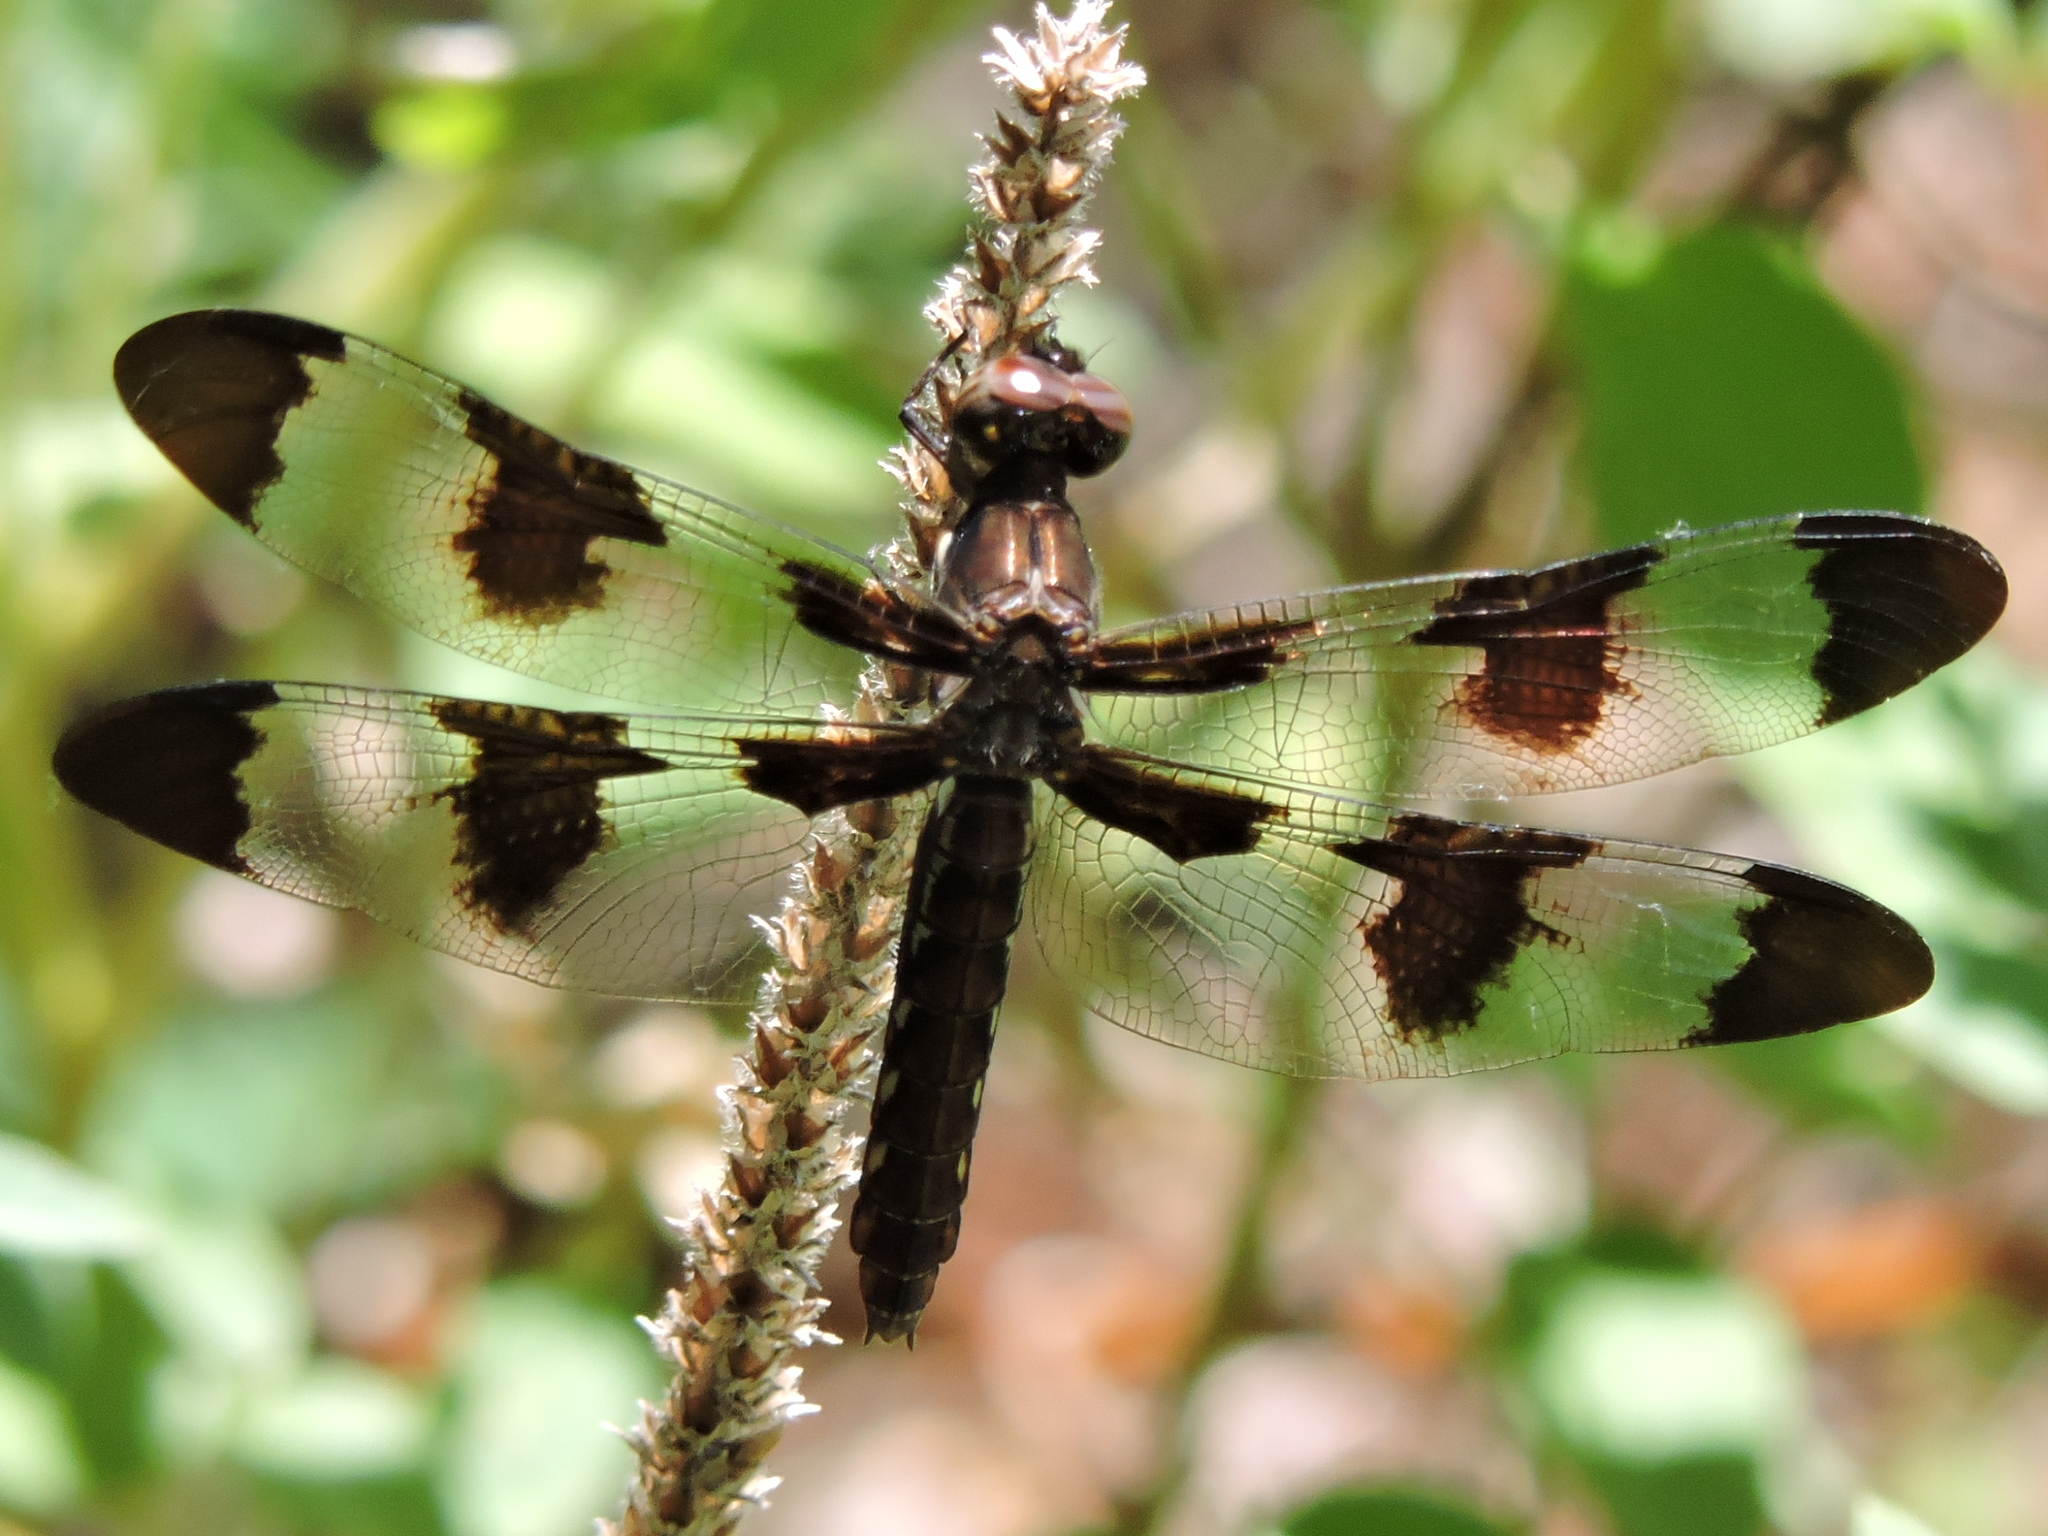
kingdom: Animalia
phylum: Arthropoda
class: Insecta
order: Odonata
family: Libellulidae
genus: Plathemis
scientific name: Plathemis lydia
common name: Common whitetail
